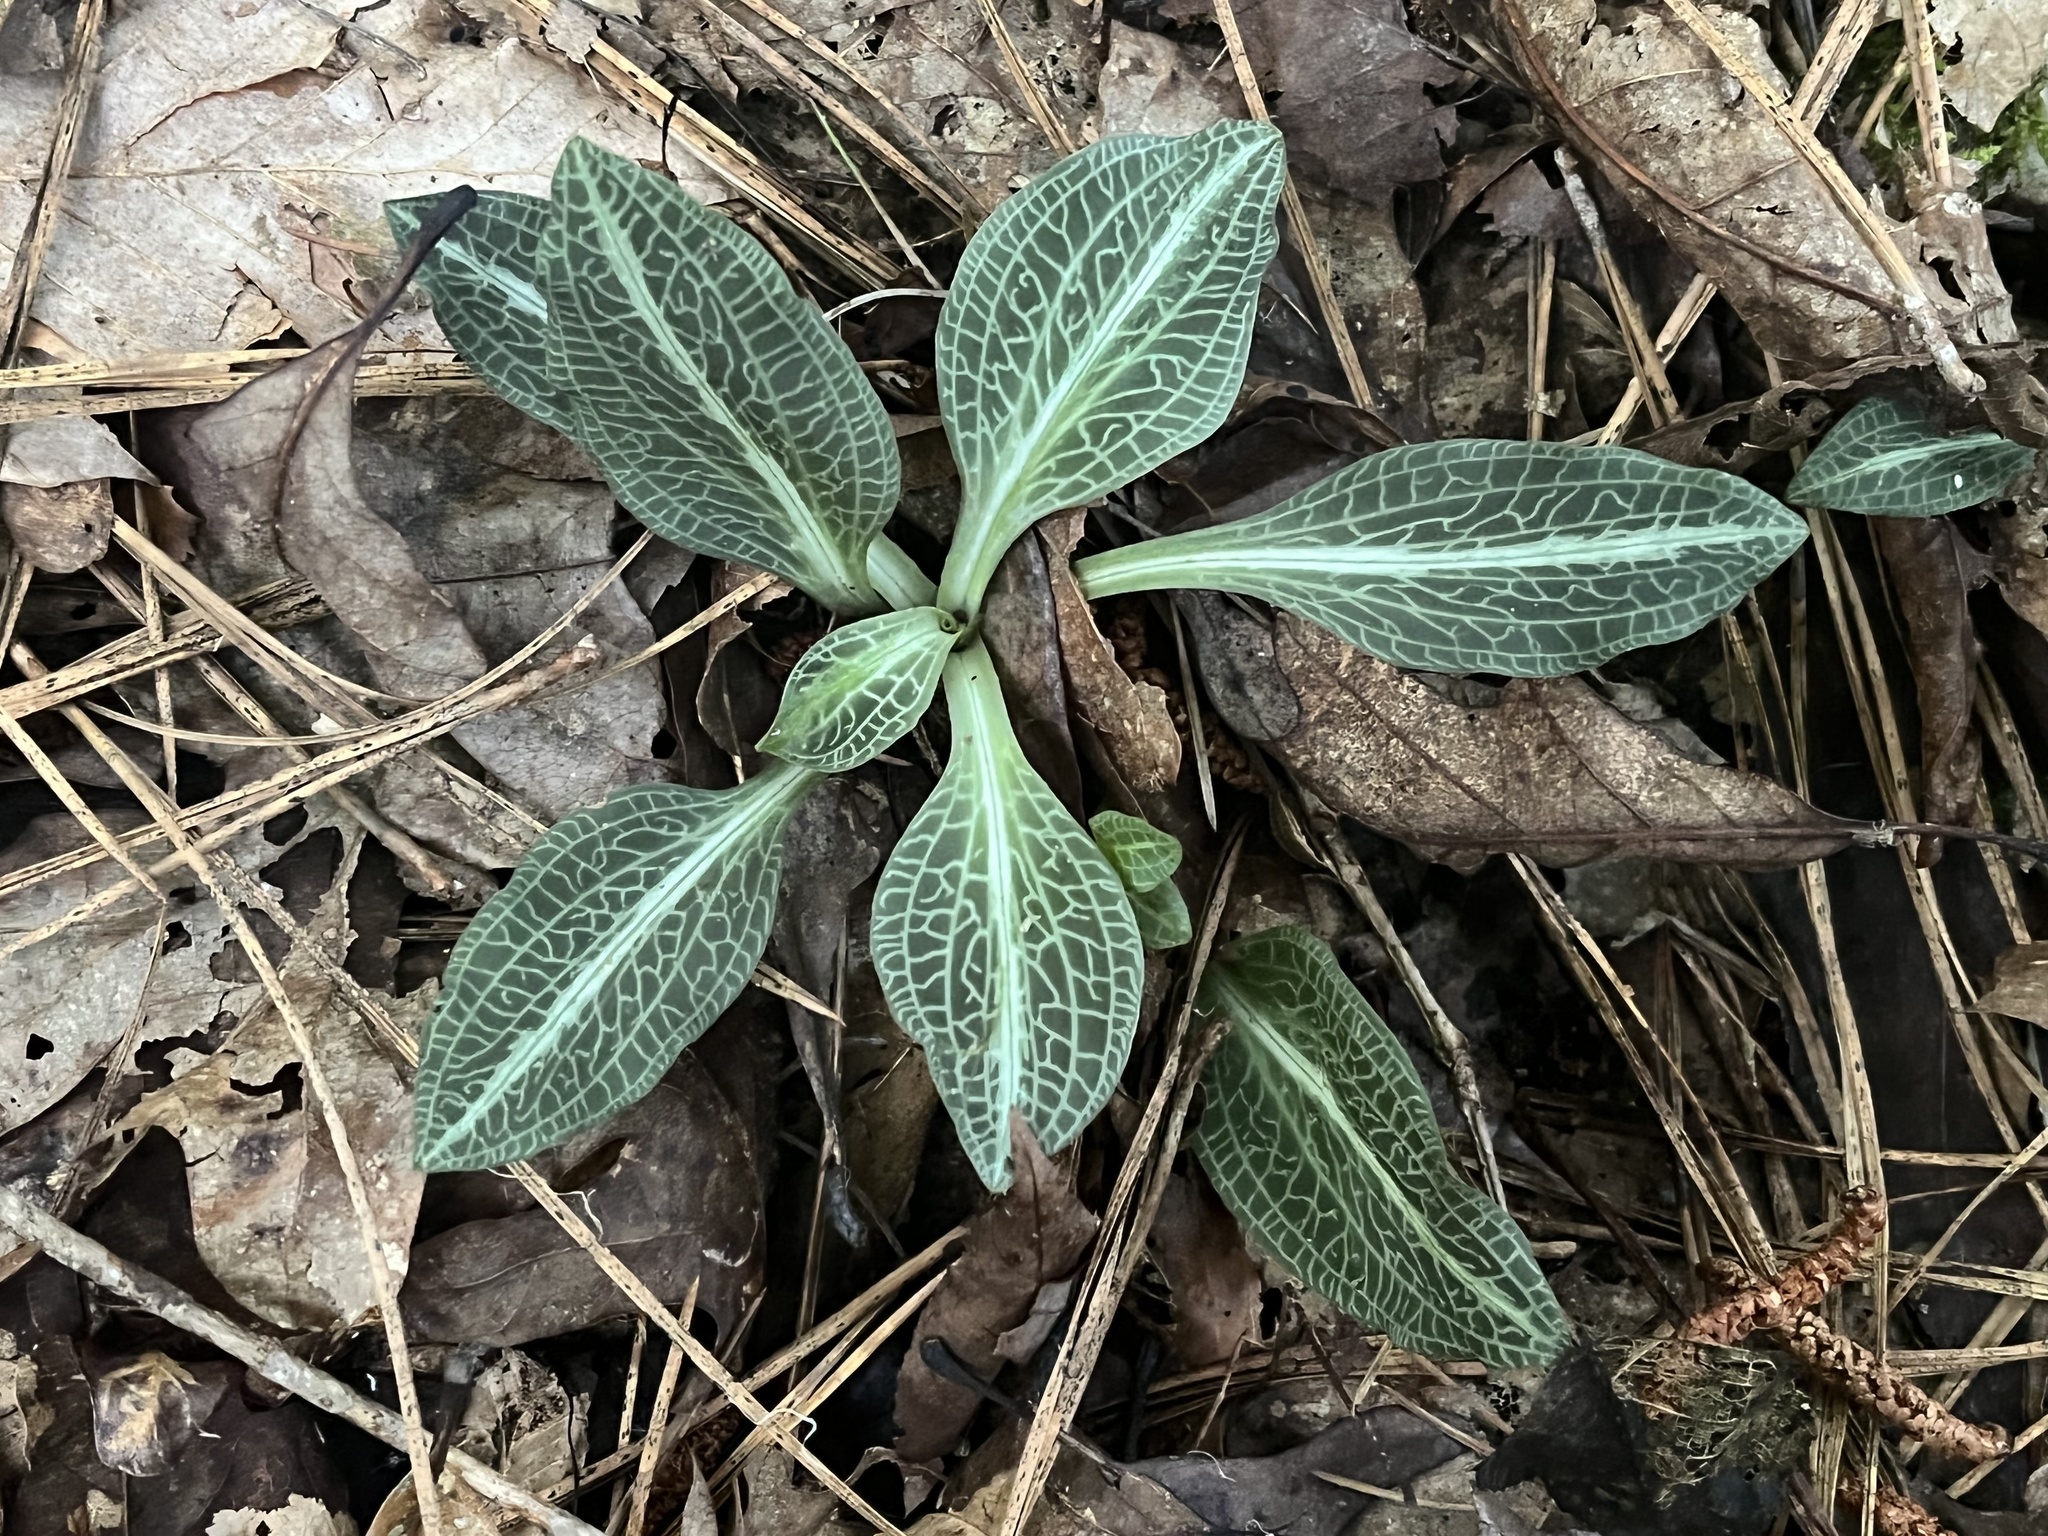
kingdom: Plantae
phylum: Tracheophyta
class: Liliopsida
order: Asparagales
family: Orchidaceae
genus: Goodyera
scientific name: Goodyera pubescens
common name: Downy rattlesnake-plantain
